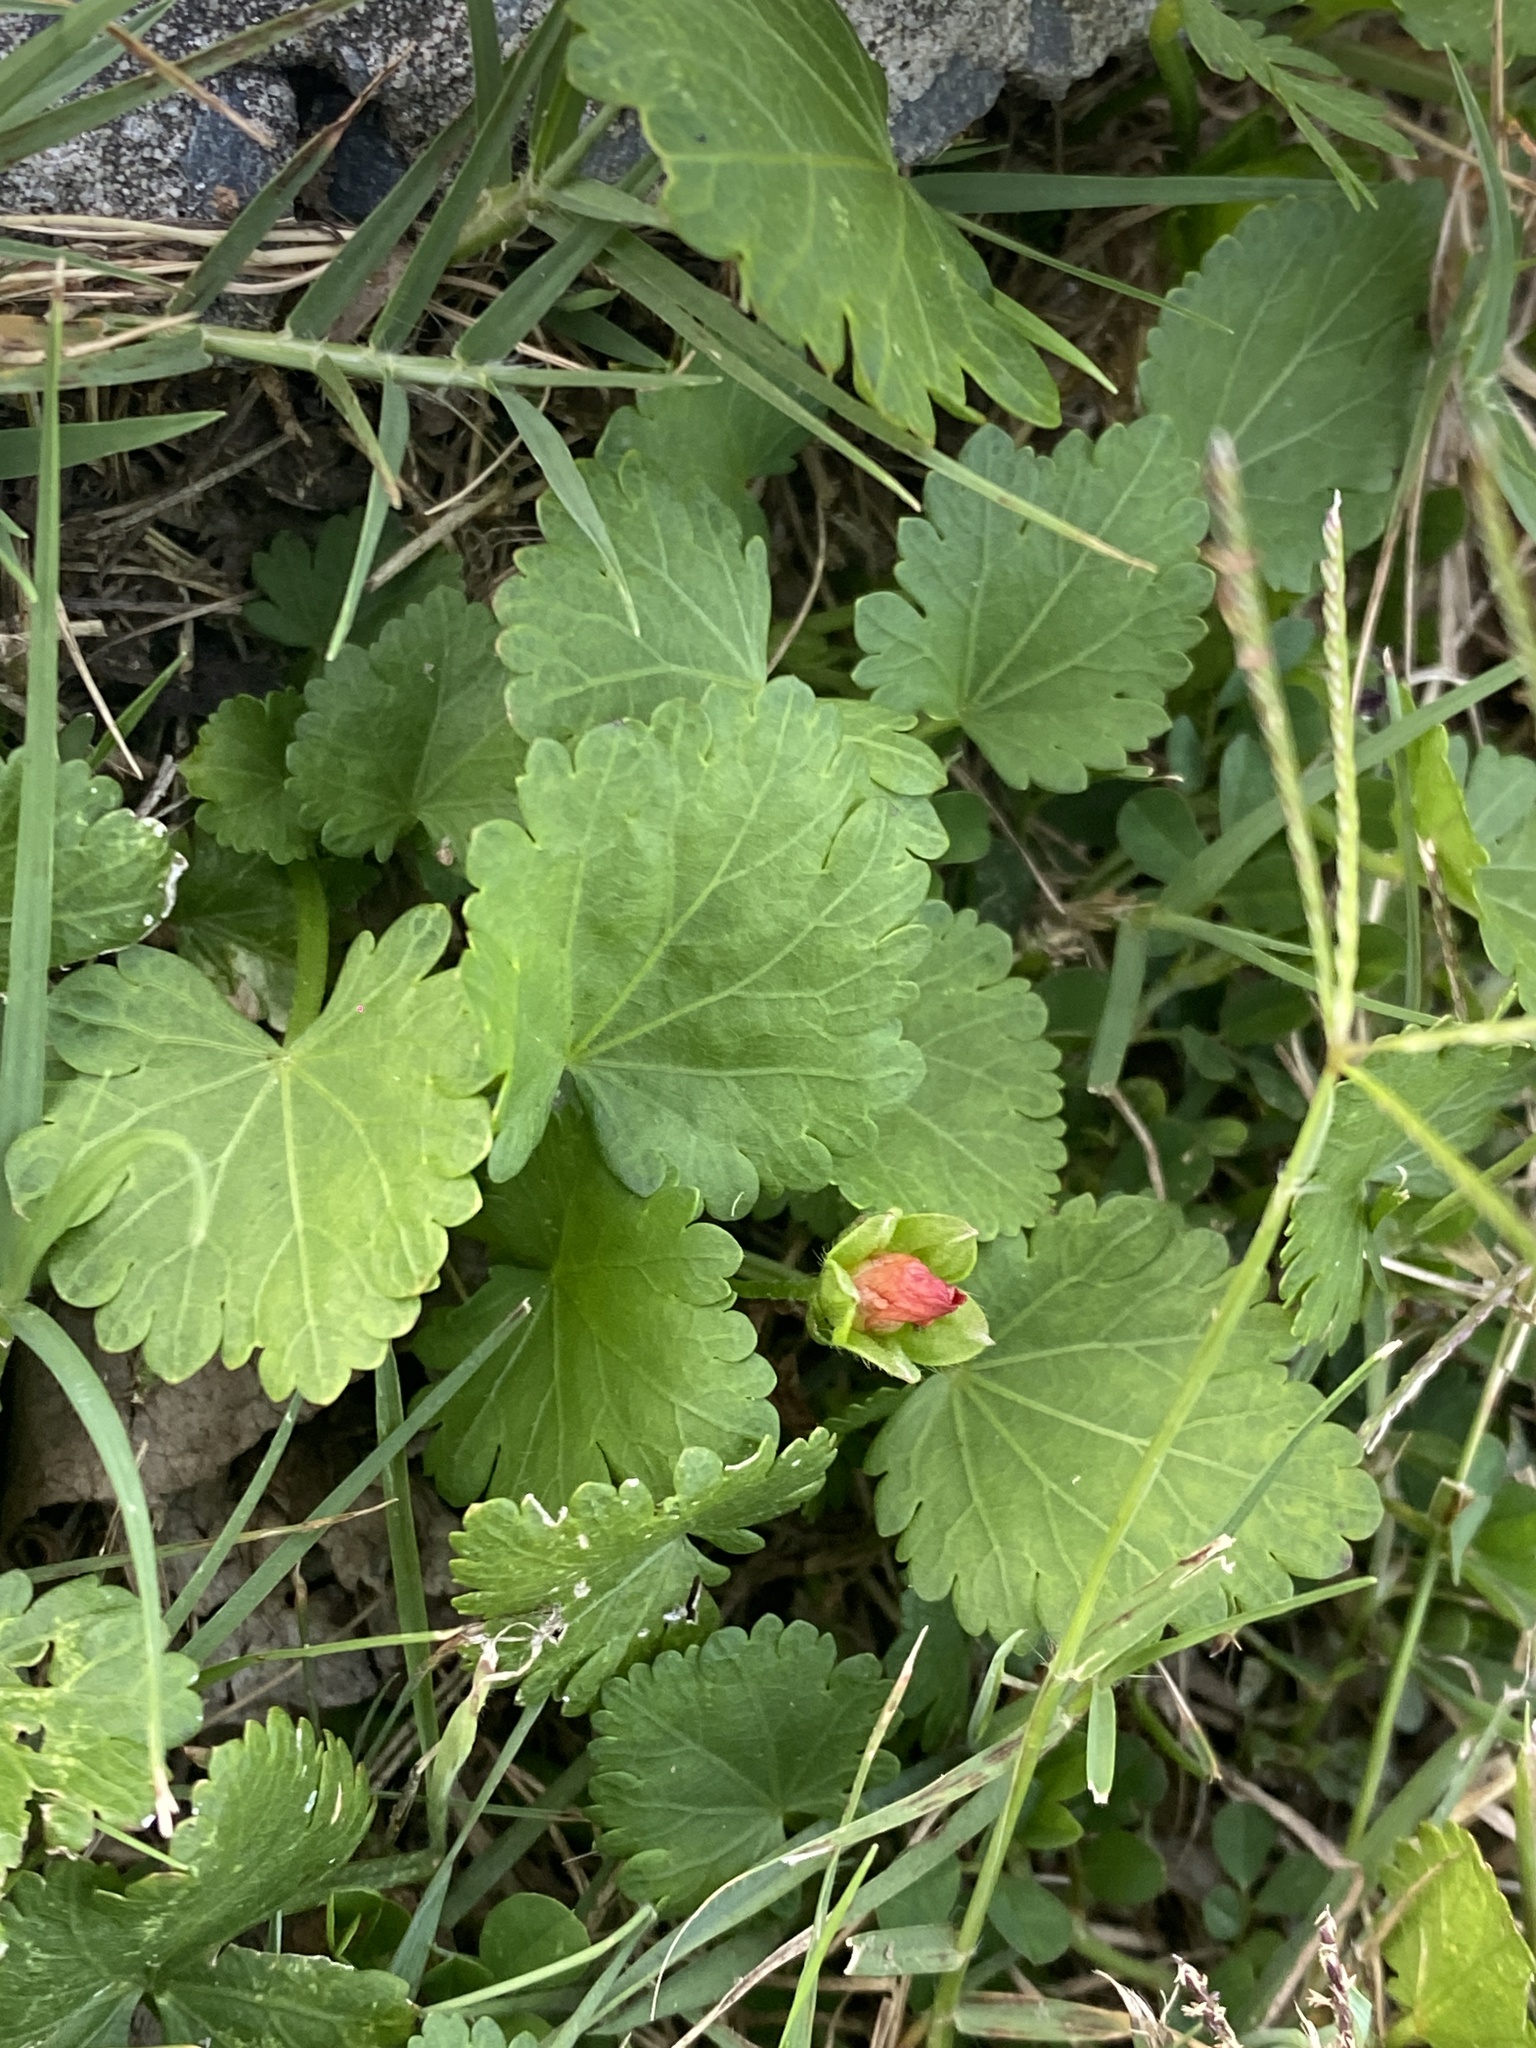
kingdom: Plantae
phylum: Tracheophyta
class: Magnoliopsida
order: Malvales
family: Malvaceae
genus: Modiola
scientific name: Modiola caroliniana
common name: Carolina bristlemallow
